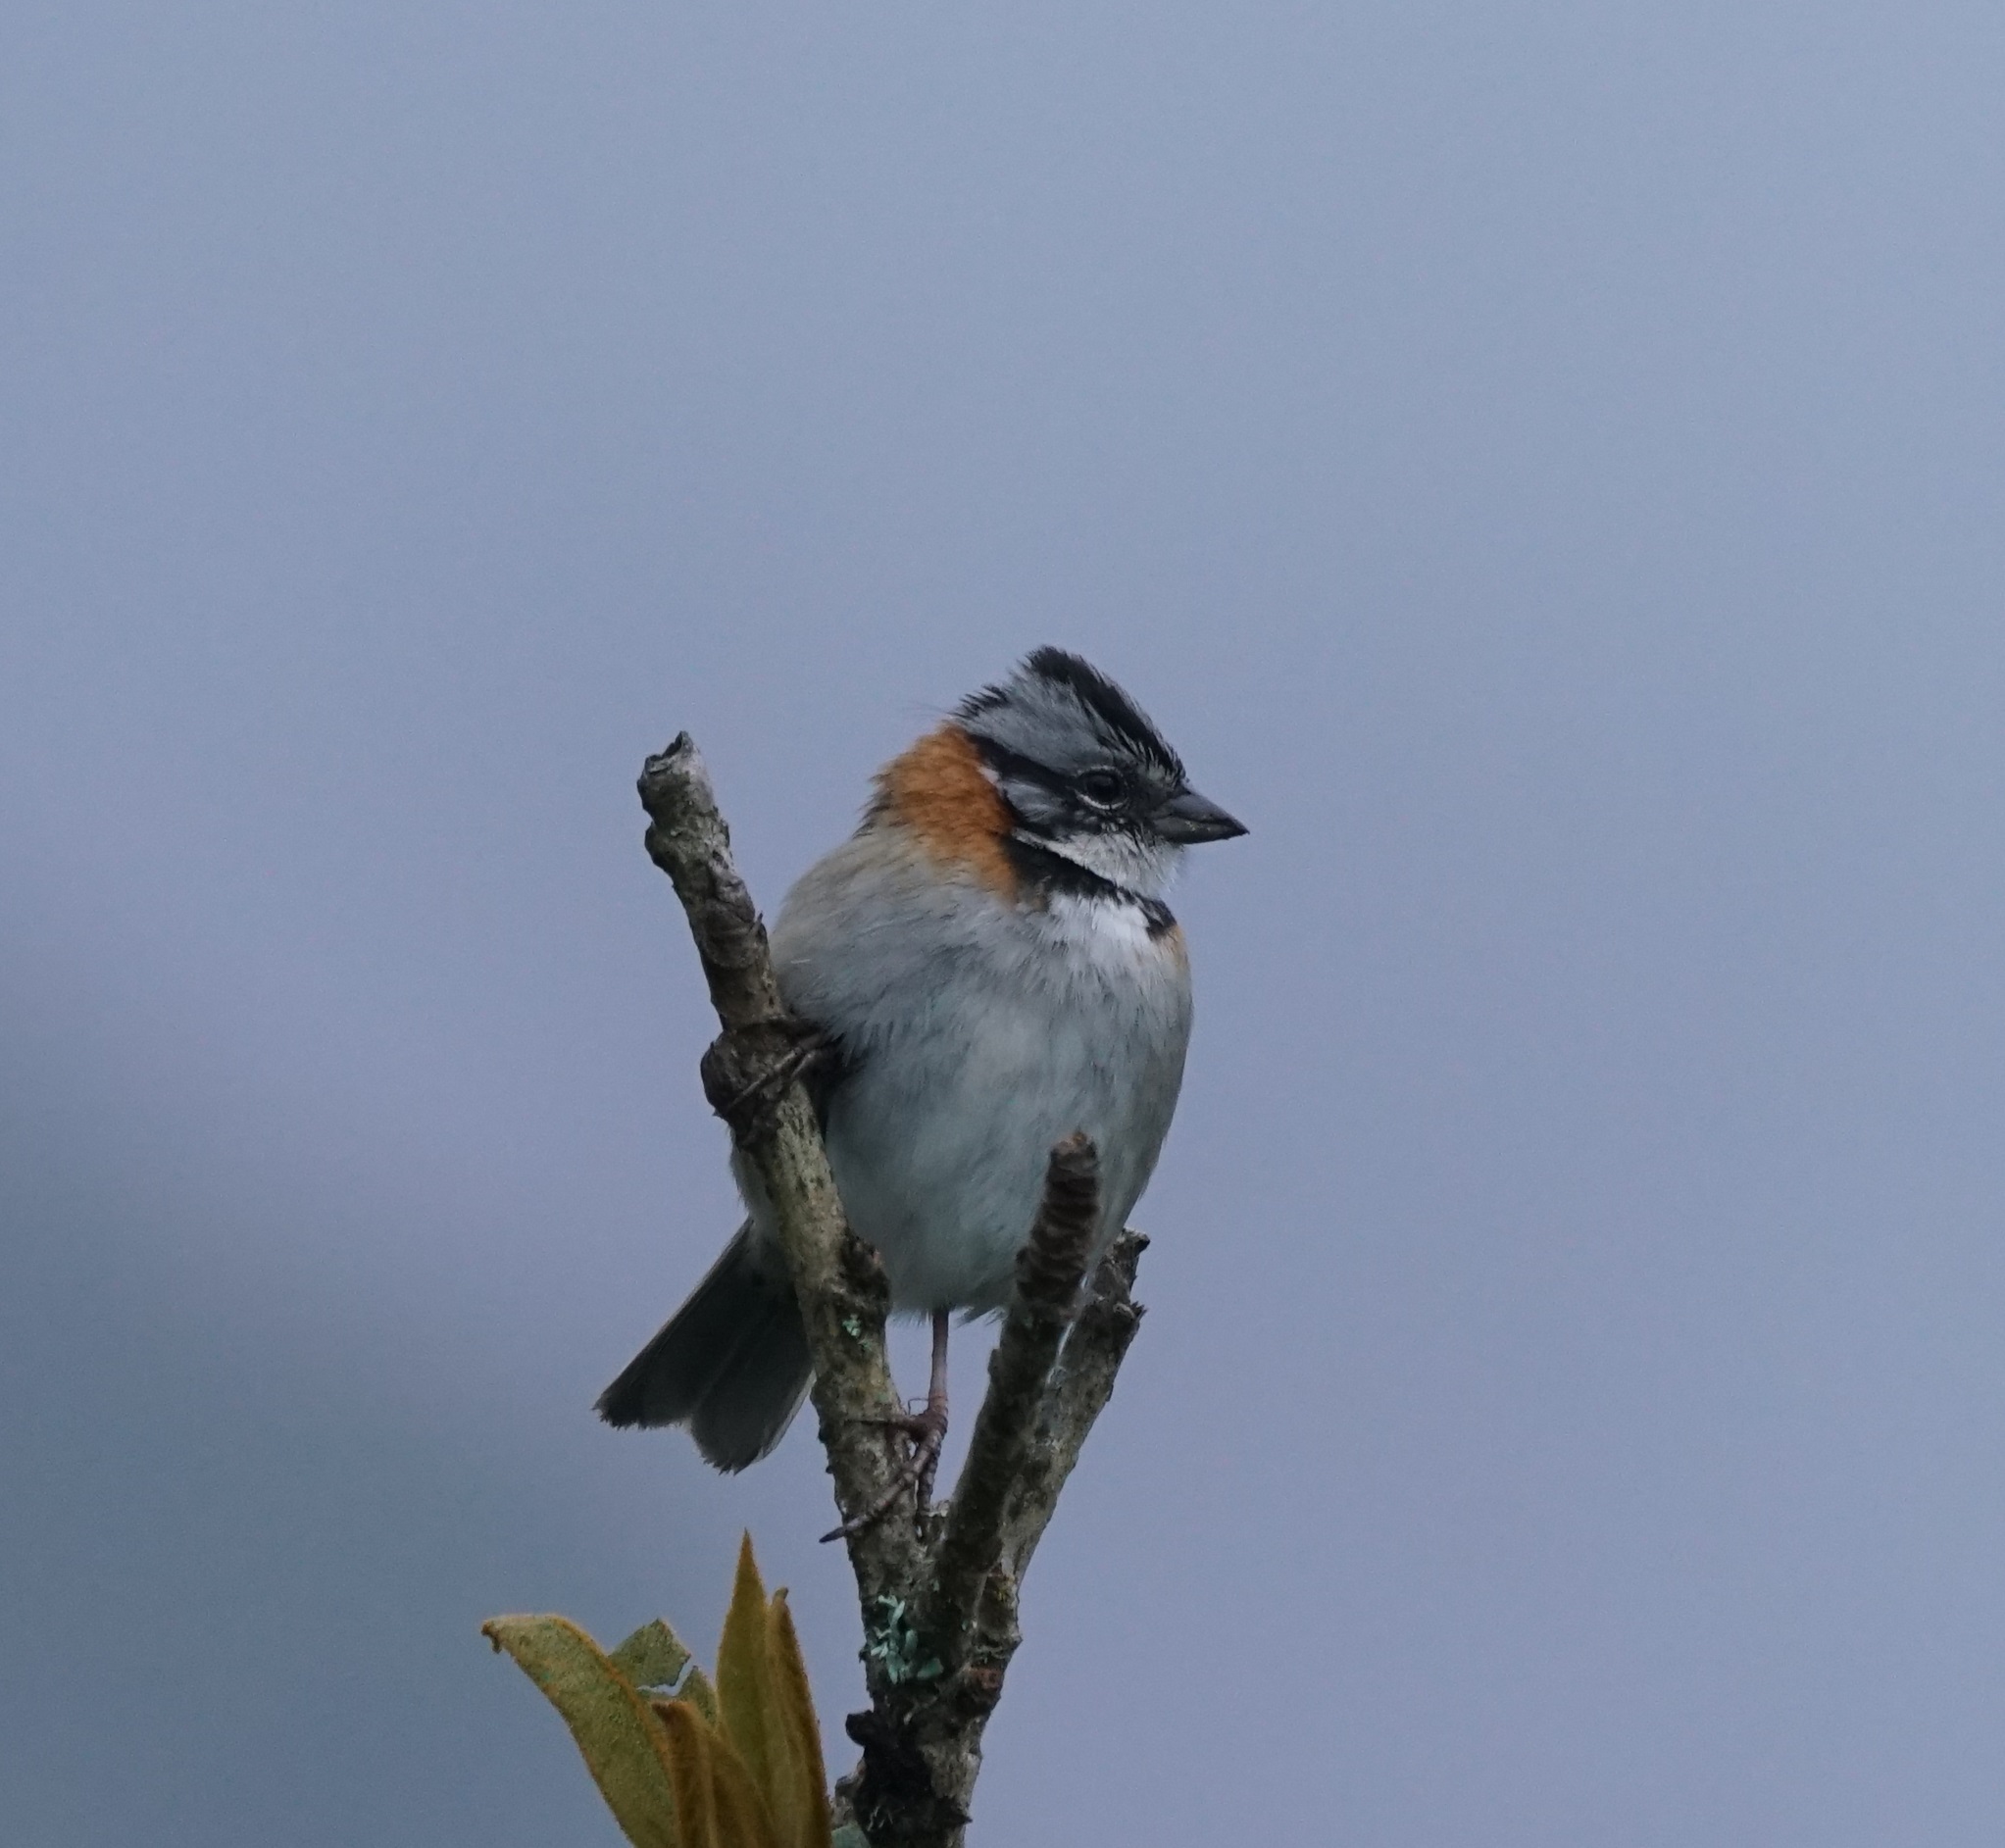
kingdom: Animalia
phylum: Chordata
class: Aves
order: Passeriformes
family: Passerellidae
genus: Zonotrichia
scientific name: Zonotrichia capensis
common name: Rufous-collared sparrow
